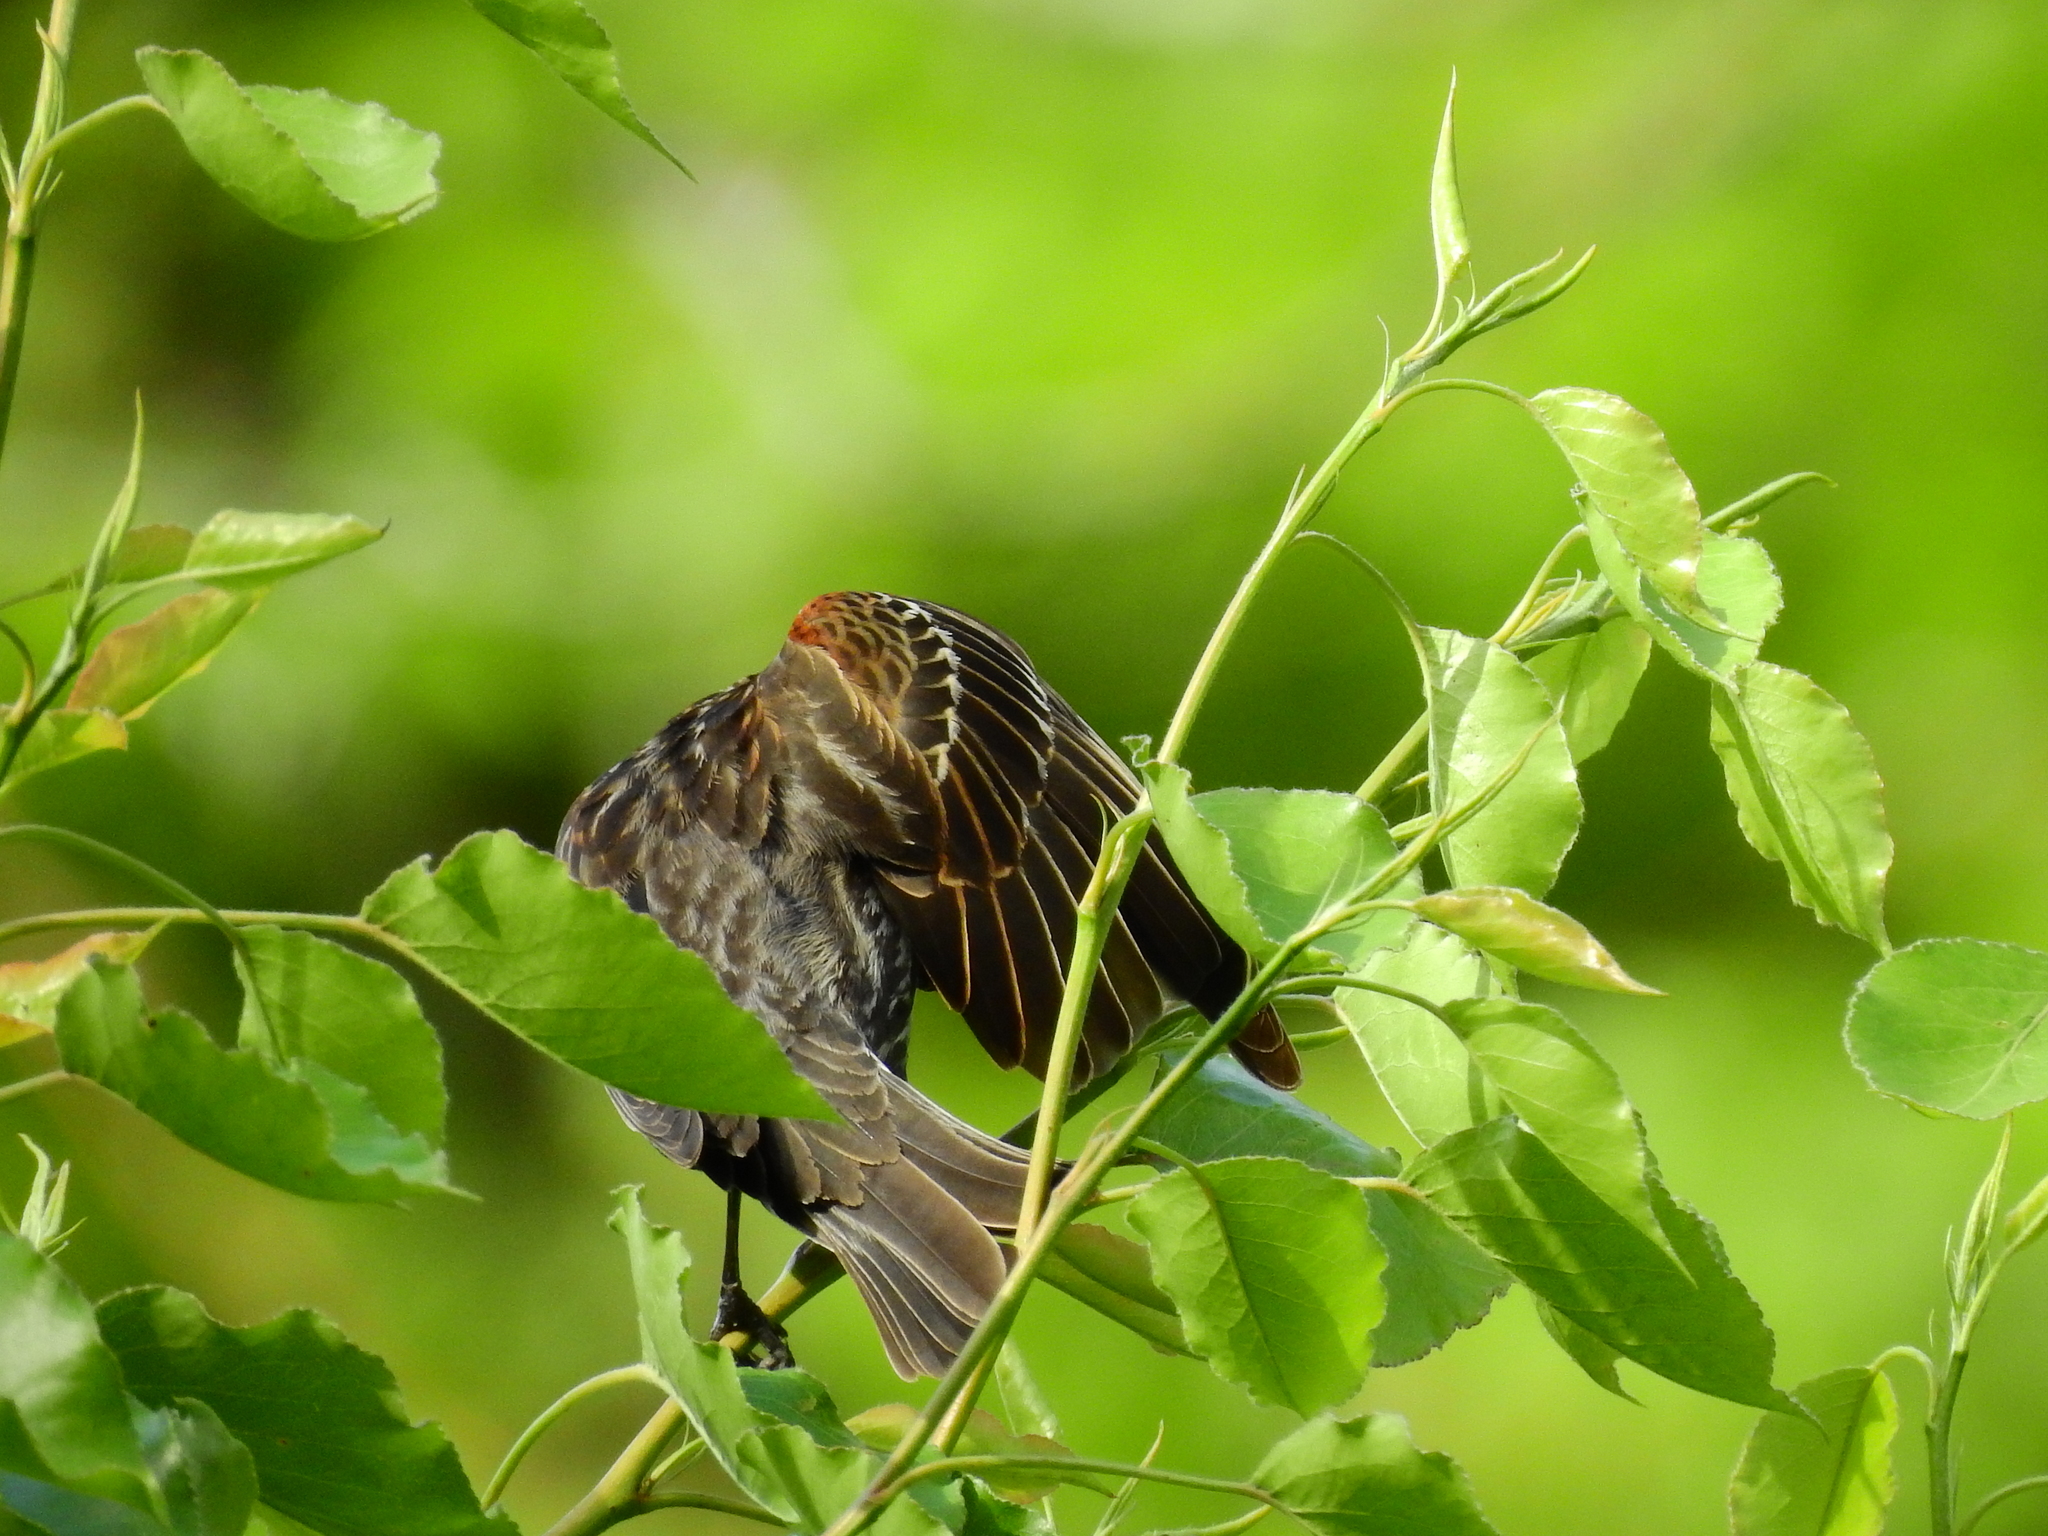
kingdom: Animalia
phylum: Chordata
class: Aves
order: Passeriformes
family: Icteridae
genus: Agelaius
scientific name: Agelaius phoeniceus
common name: Red-winged blackbird
